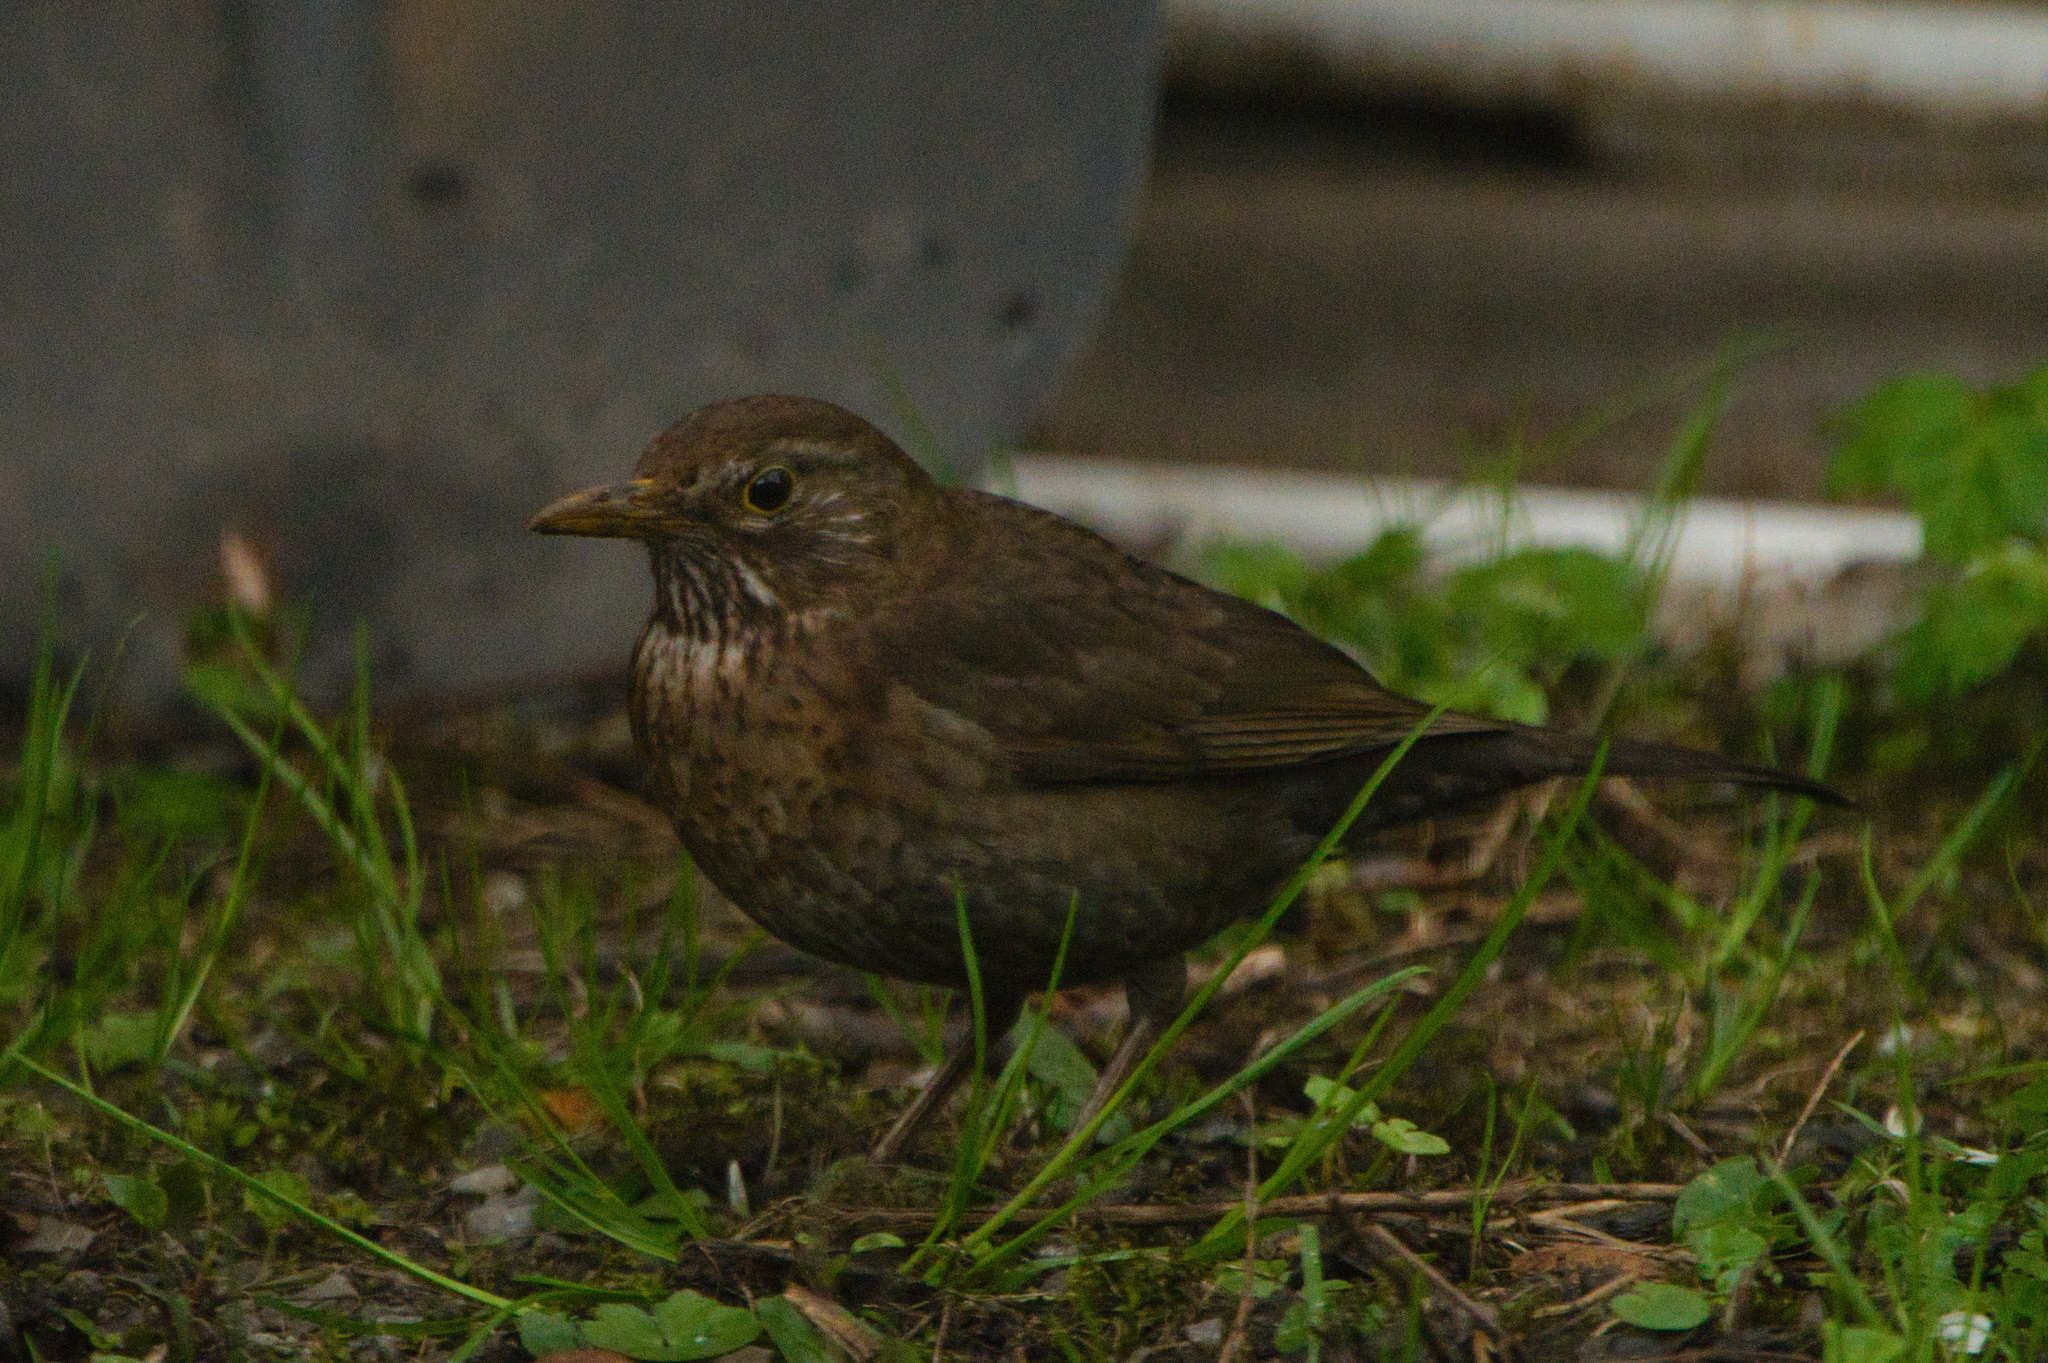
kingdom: Animalia
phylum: Chordata
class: Aves
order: Passeriformes
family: Turdidae
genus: Turdus
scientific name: Turdus merula
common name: Common blackbird
